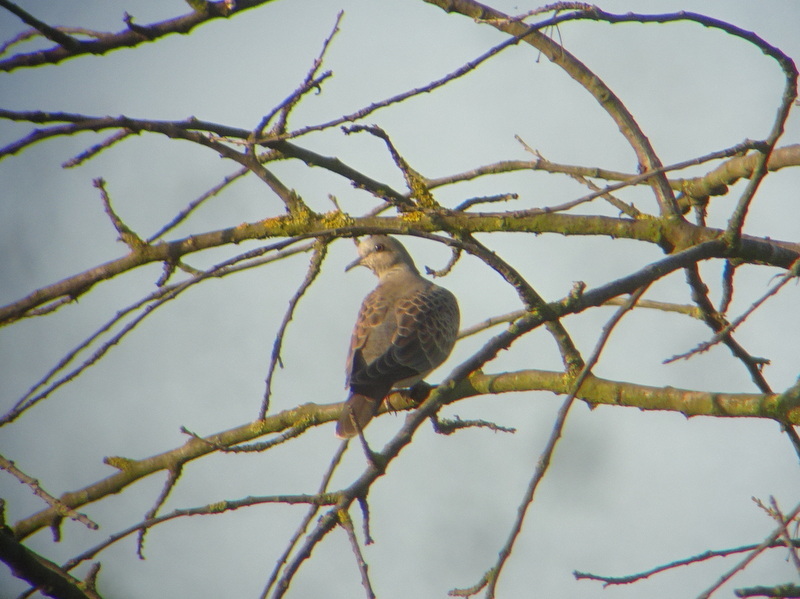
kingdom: Animalia
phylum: Chordata
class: Aves
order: Columbiformes
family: Columbidae
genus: Streptopelia
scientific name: Streptopelia turtur
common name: European turtle dove
